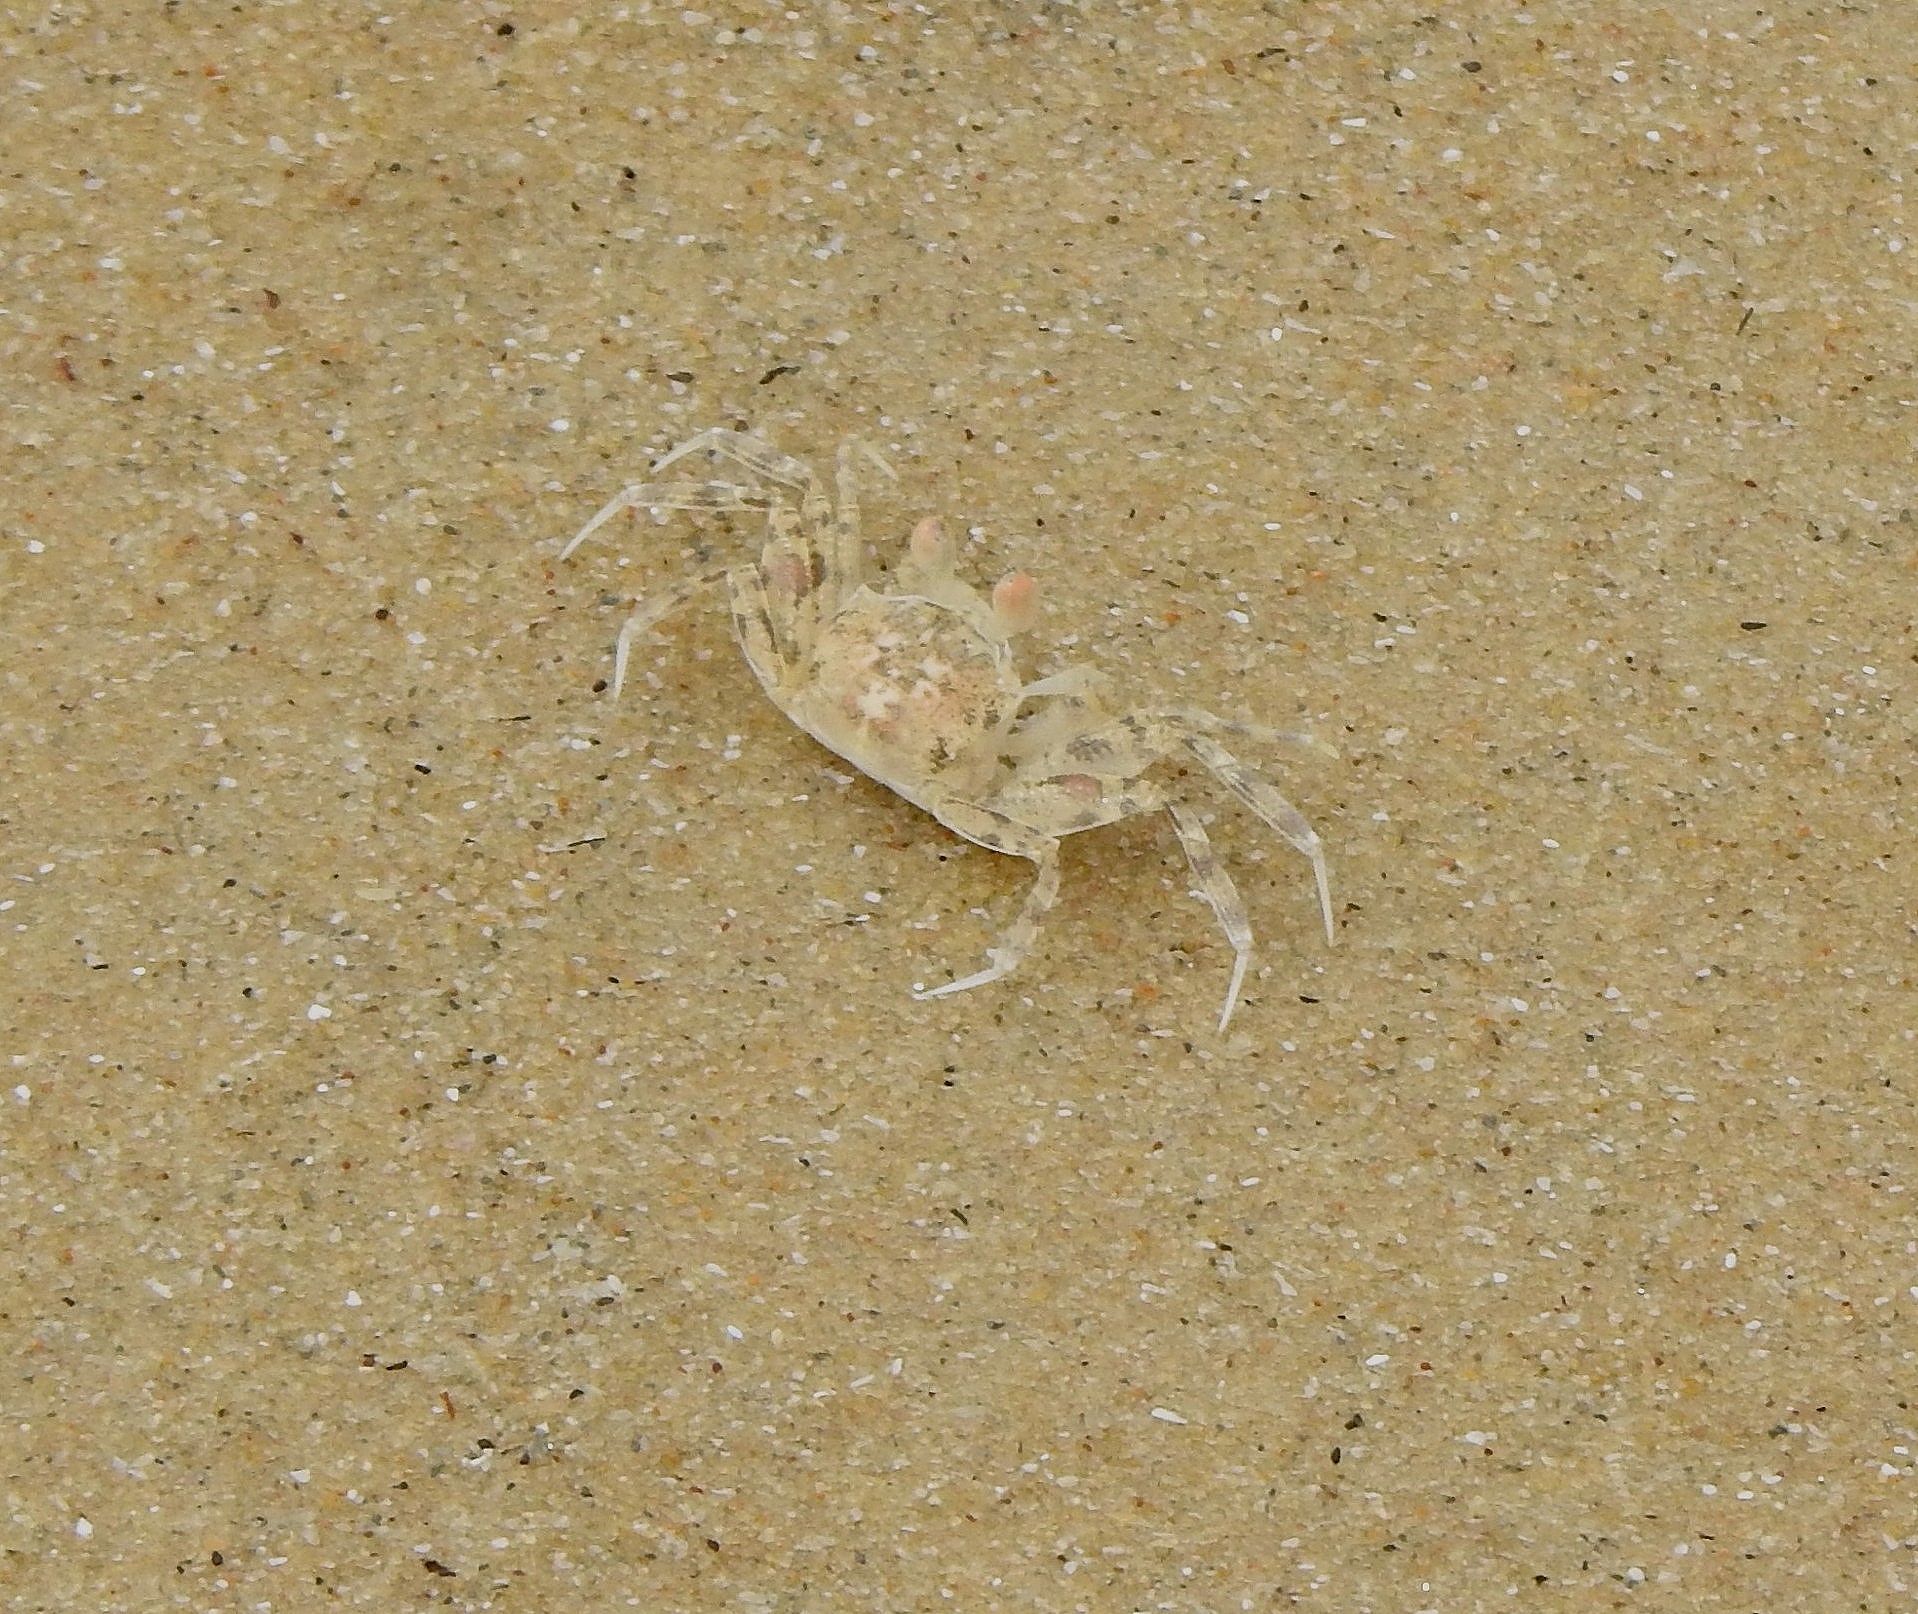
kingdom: Animalia
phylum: Arthropoda
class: Malacostraca
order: Decapoda
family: Ocypodidae
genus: Ocypode
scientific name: Ocypode brevicornis
